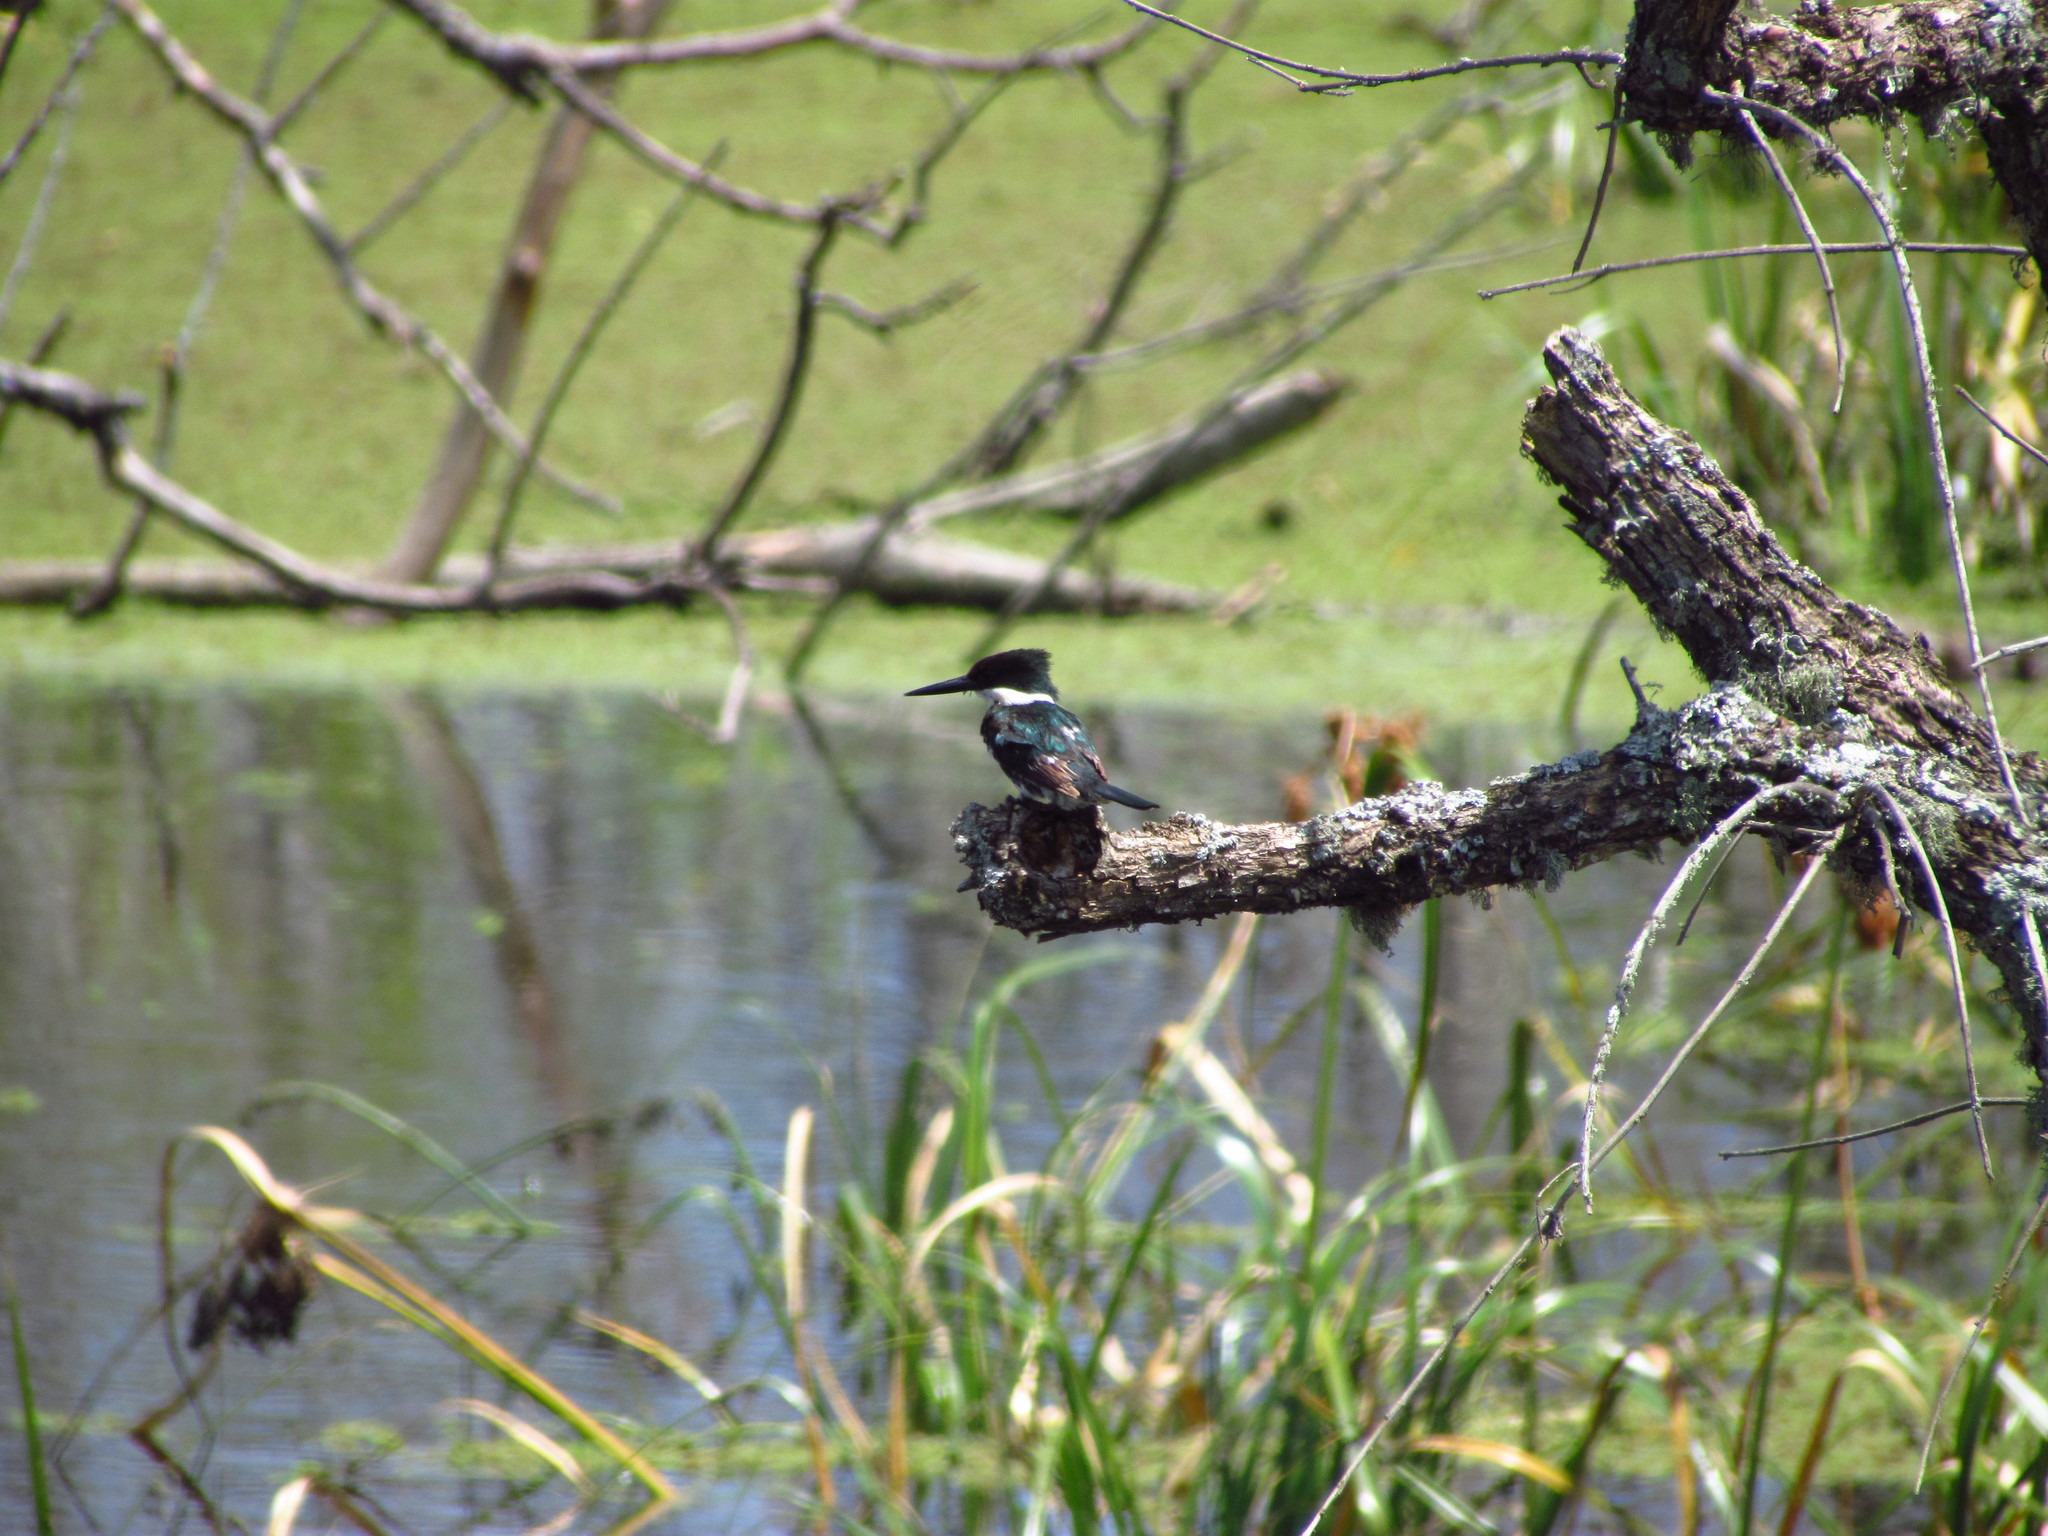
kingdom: Animalia
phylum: Chordata
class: Aves
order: Coraciiformes
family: Alcedinidae
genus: Chloroceryle
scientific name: Chloroceryle americana
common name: Green kingfisher
